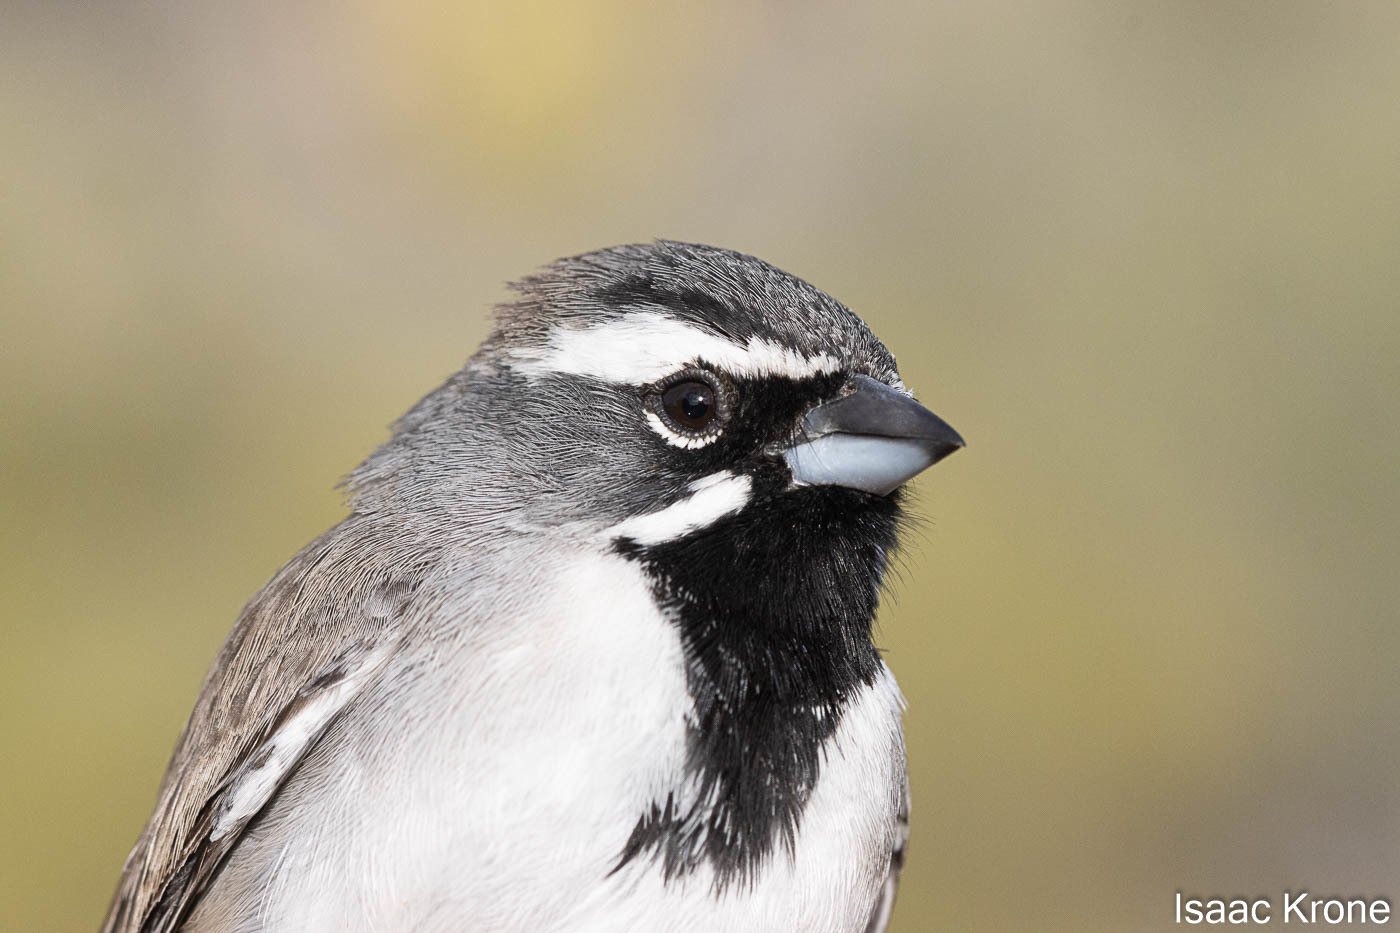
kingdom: Animalia
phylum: Chordata
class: Aves
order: Passeriformes
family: Passerellidae
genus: Amphispiza
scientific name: Amphispiza bilineata
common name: Black-throated sparrow
